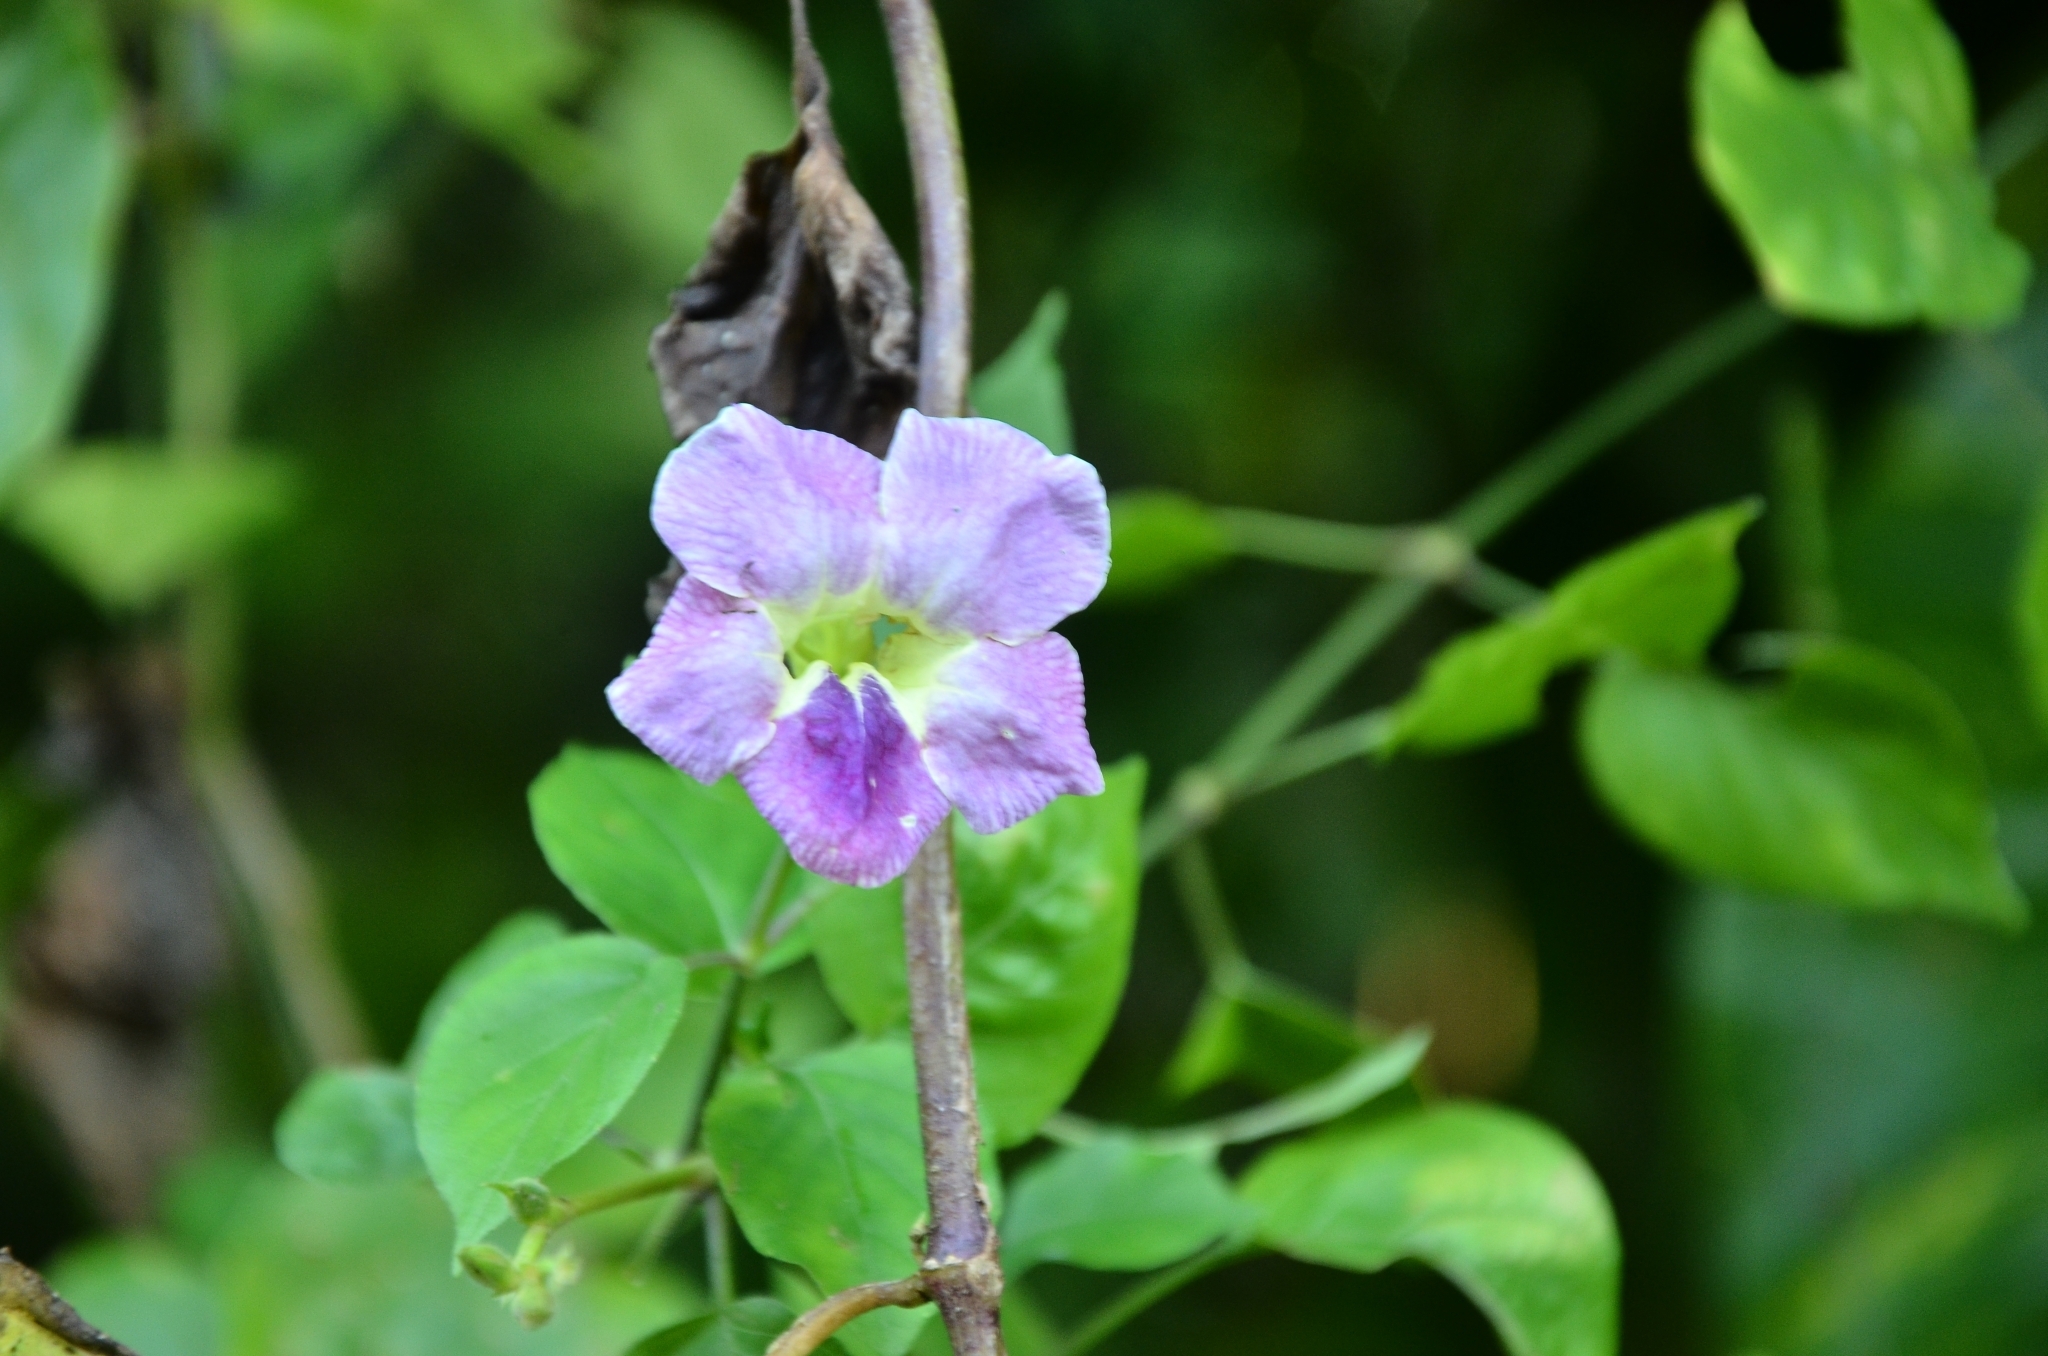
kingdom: Plantae
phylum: Tracheophyta
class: Magnoliopsida
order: Lamiales
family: Acanthaceae
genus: Asystasia
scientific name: Asystasia gangetica
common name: Chinese violet
